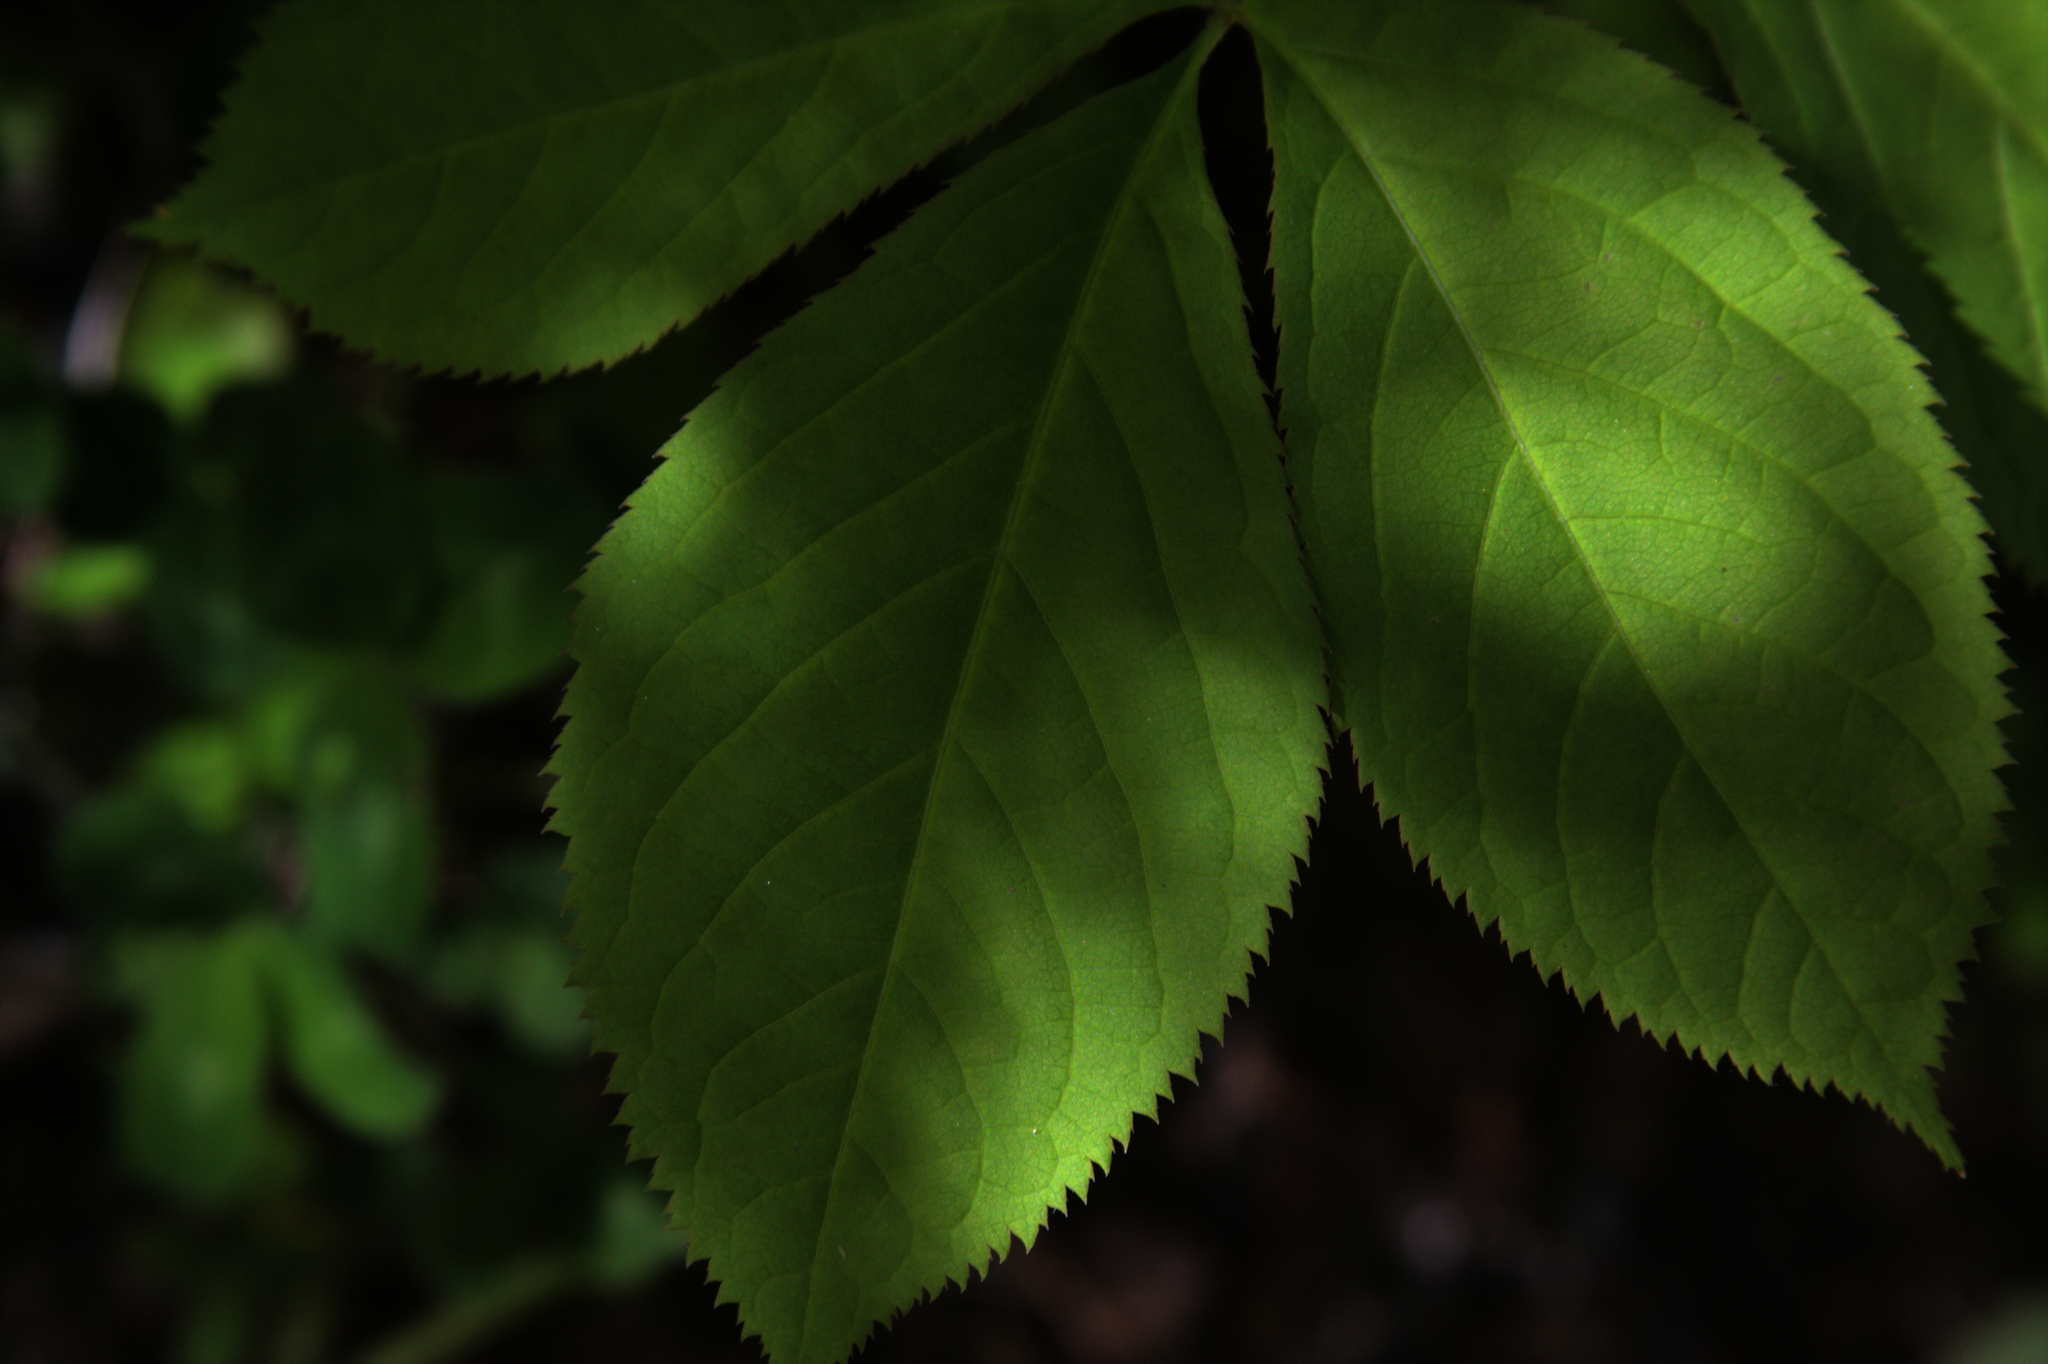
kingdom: Plantae
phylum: Tracheophyta
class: Magnoliopsida
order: Apiales
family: Araliaceae
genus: Aralia
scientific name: Aralia nudicaulis
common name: Wild sarsaparilla
